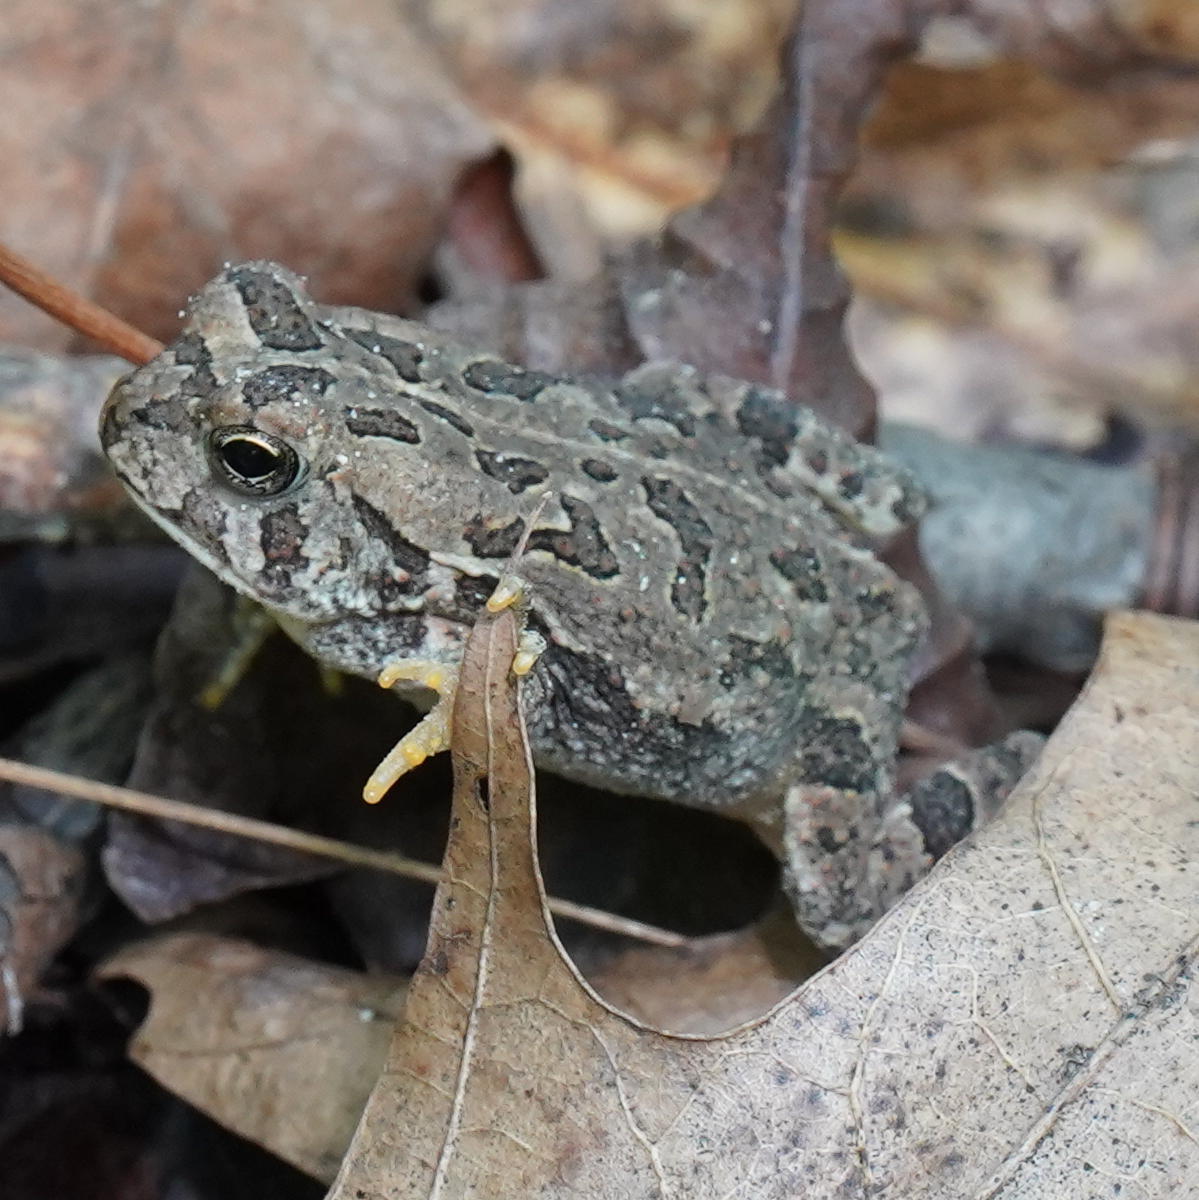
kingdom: Animalia
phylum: Chordata
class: Amphibia
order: Anura
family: Bufonidae
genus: Anaxyrus
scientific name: Anaxyrus fowleri
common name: Fowler's toad
